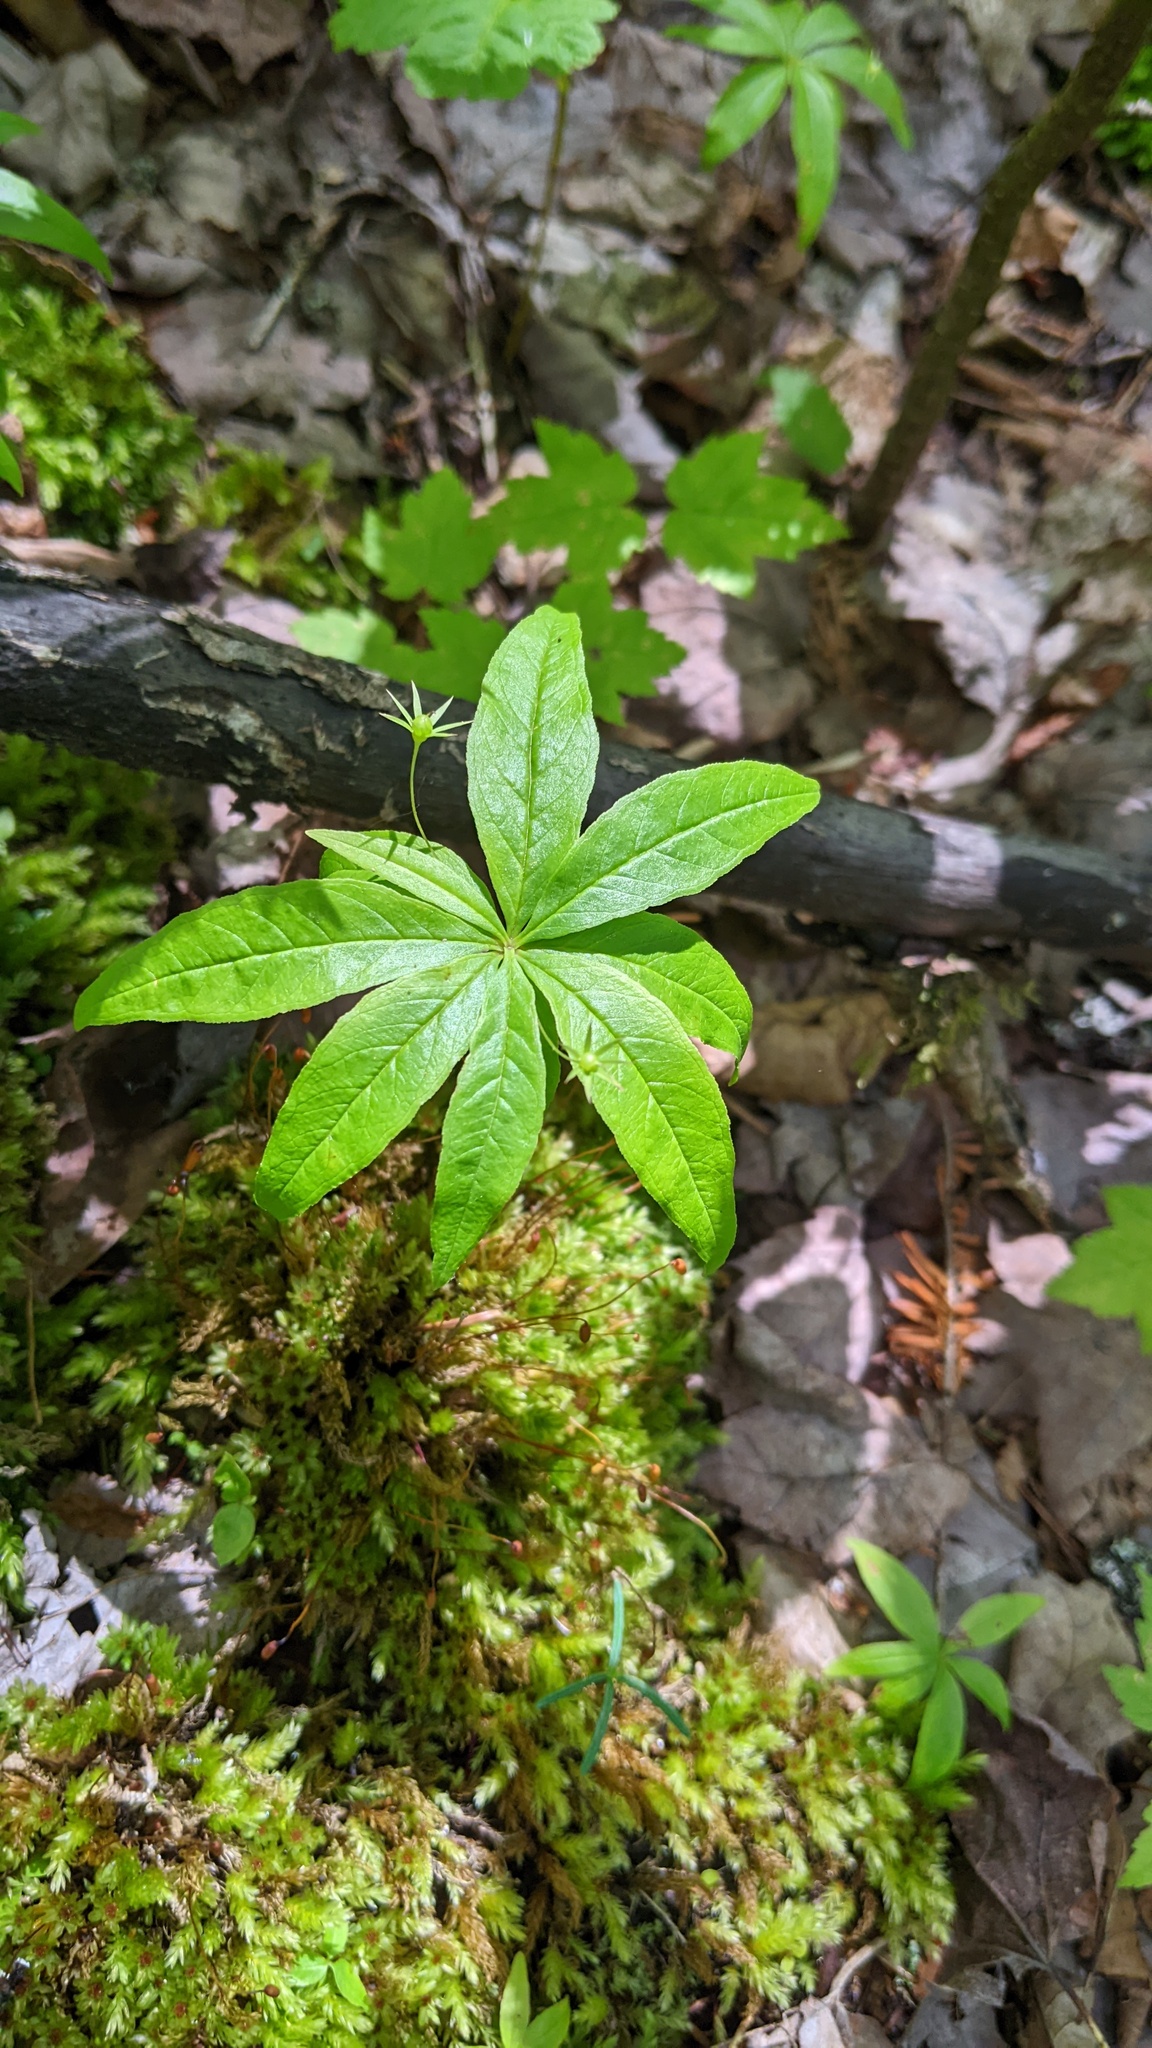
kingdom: Plantae
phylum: Tracheophyta
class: Magnoliopsida
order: Ericales
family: Primulaceae
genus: Lysimachia
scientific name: Lysimachia borealis
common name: American starflower
